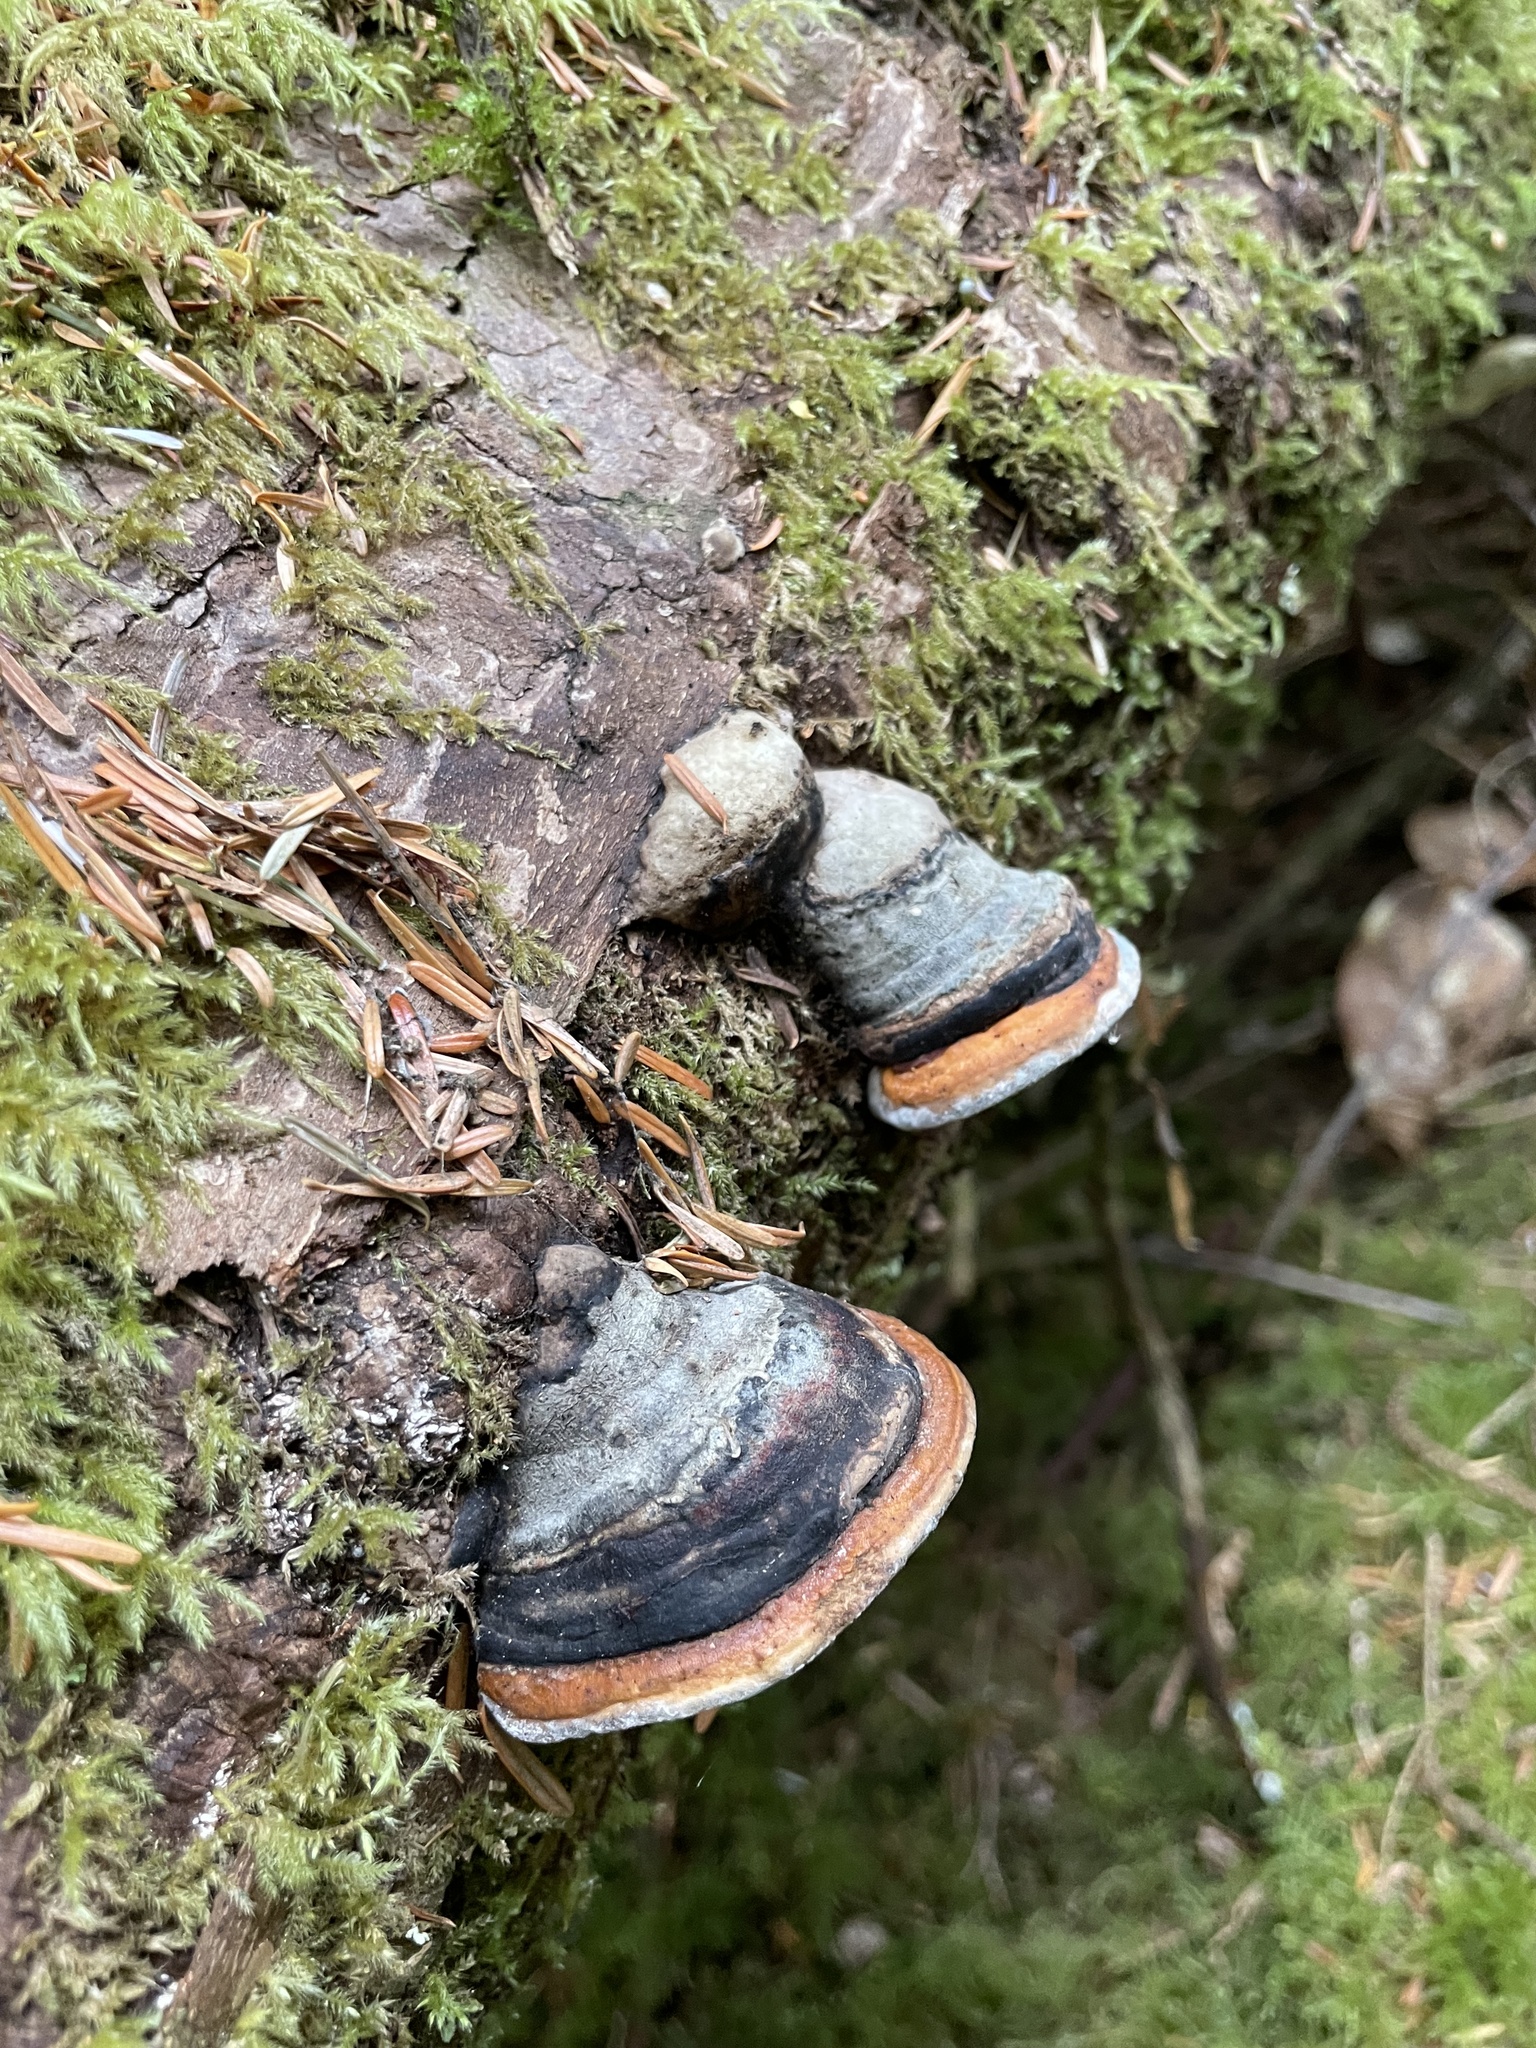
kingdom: Fungi
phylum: Basidiomycota
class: Agaricomycetes
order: Polyporales
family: Fomitopsidaceae
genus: Fomitopsis
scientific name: Fomitopsis mounceae
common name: Northern red belt
